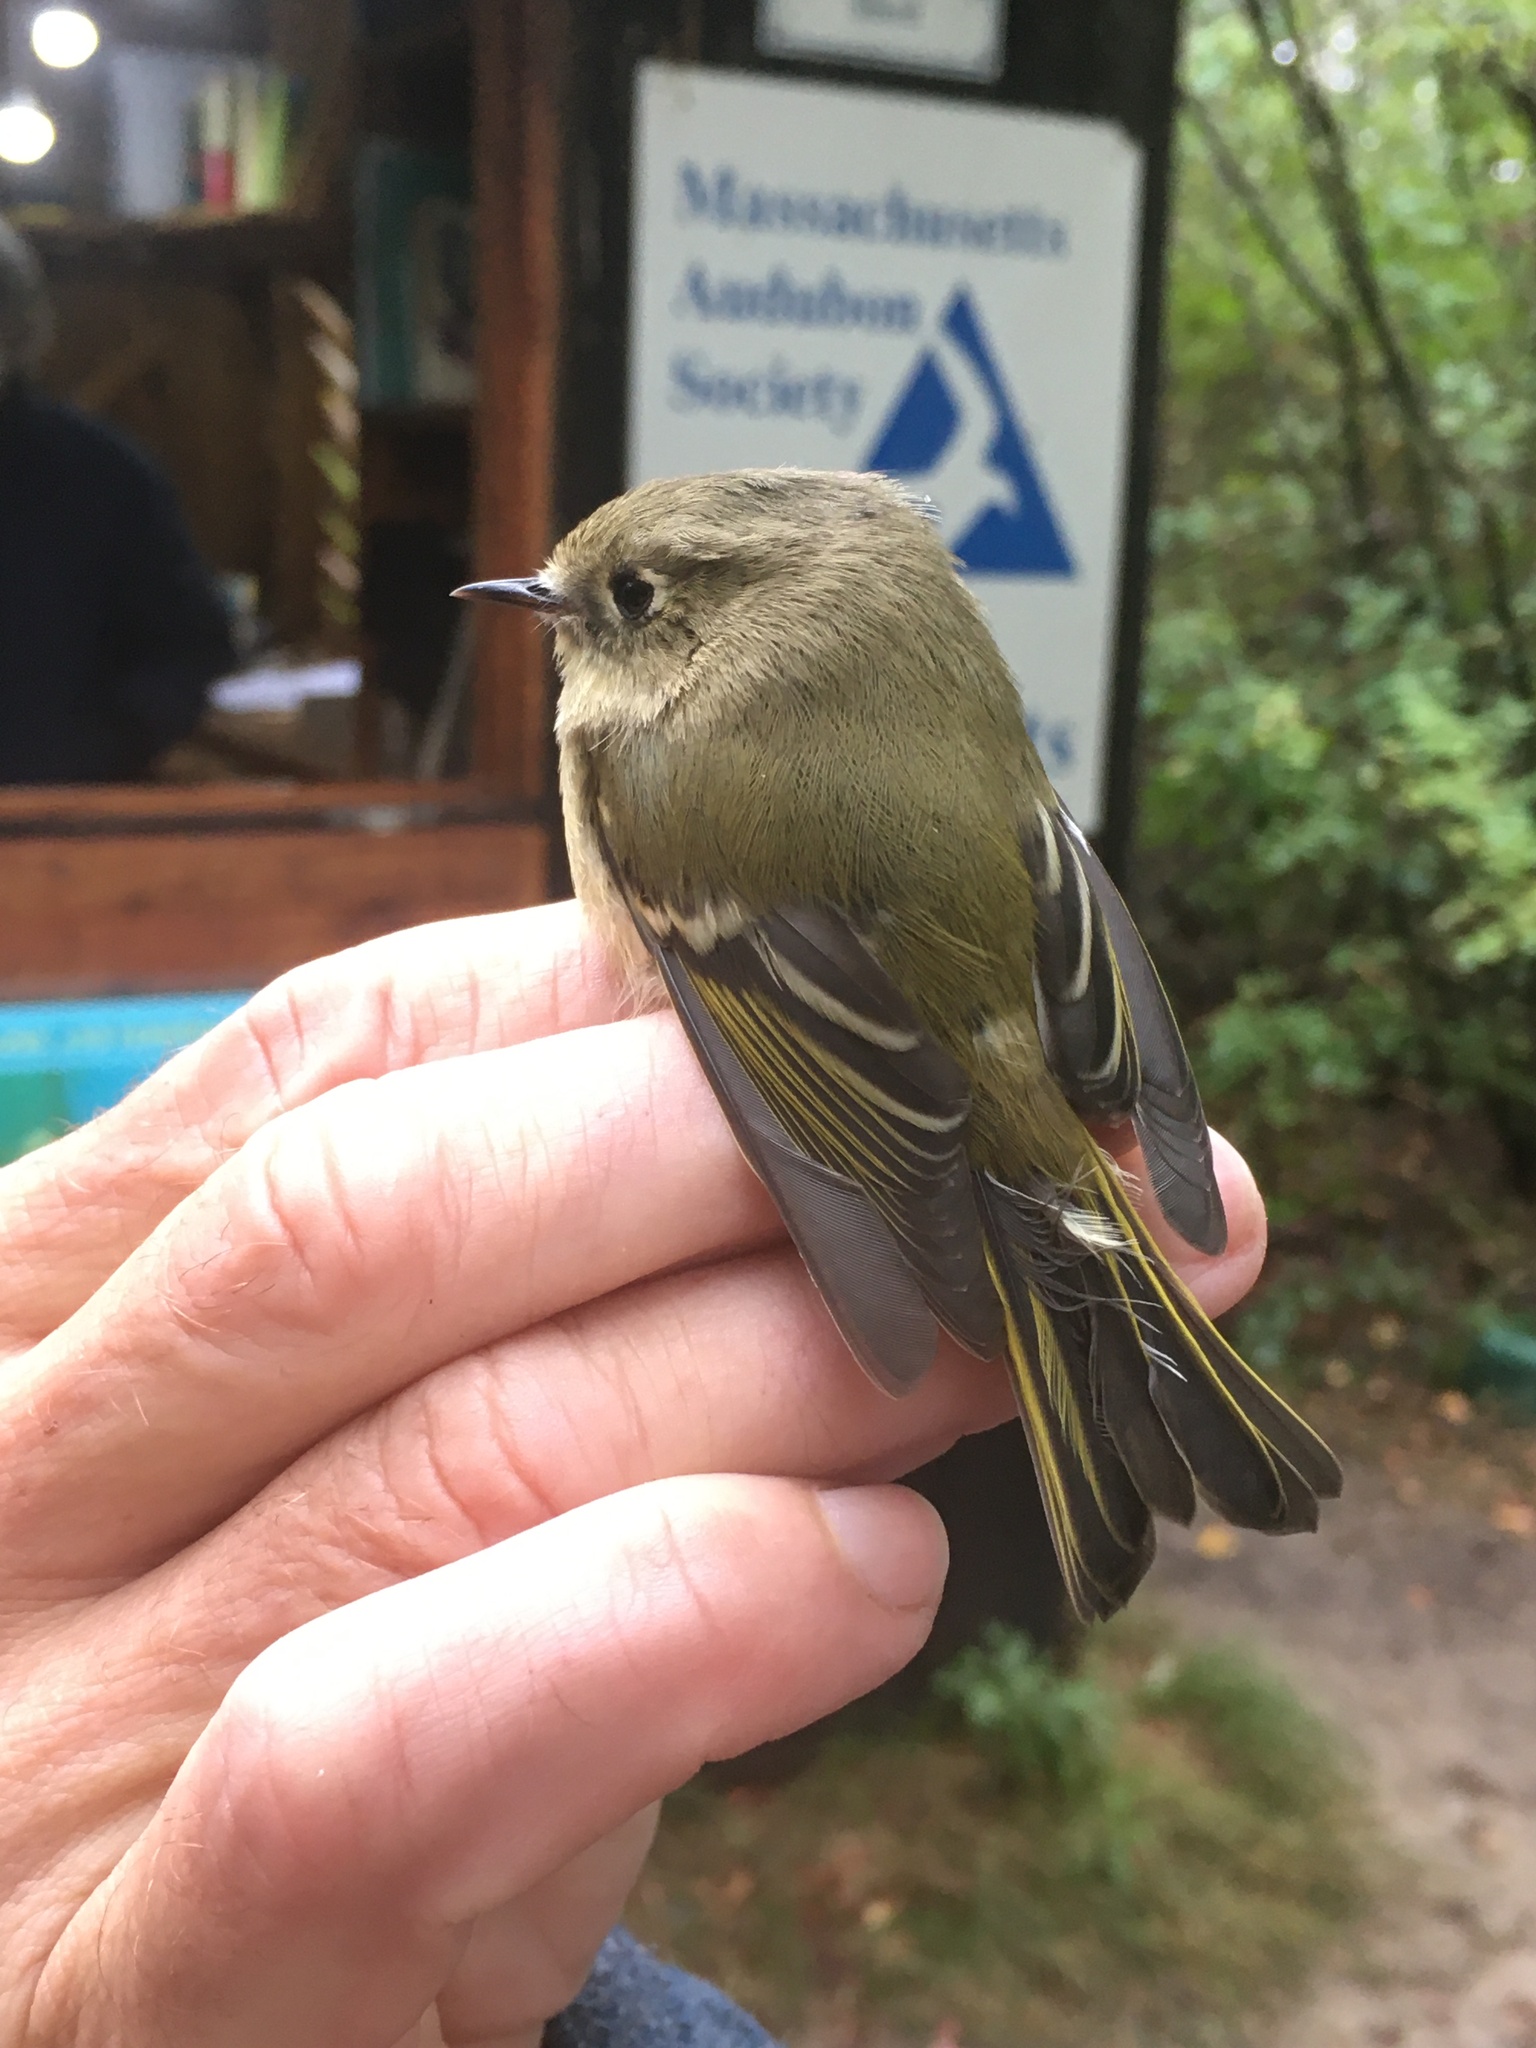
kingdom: Animalia
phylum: Chordata
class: Aves
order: Passeriformes
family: Regulidae
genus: Regulus
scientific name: Regulus calendula
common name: Ruby-crowned kinglet
